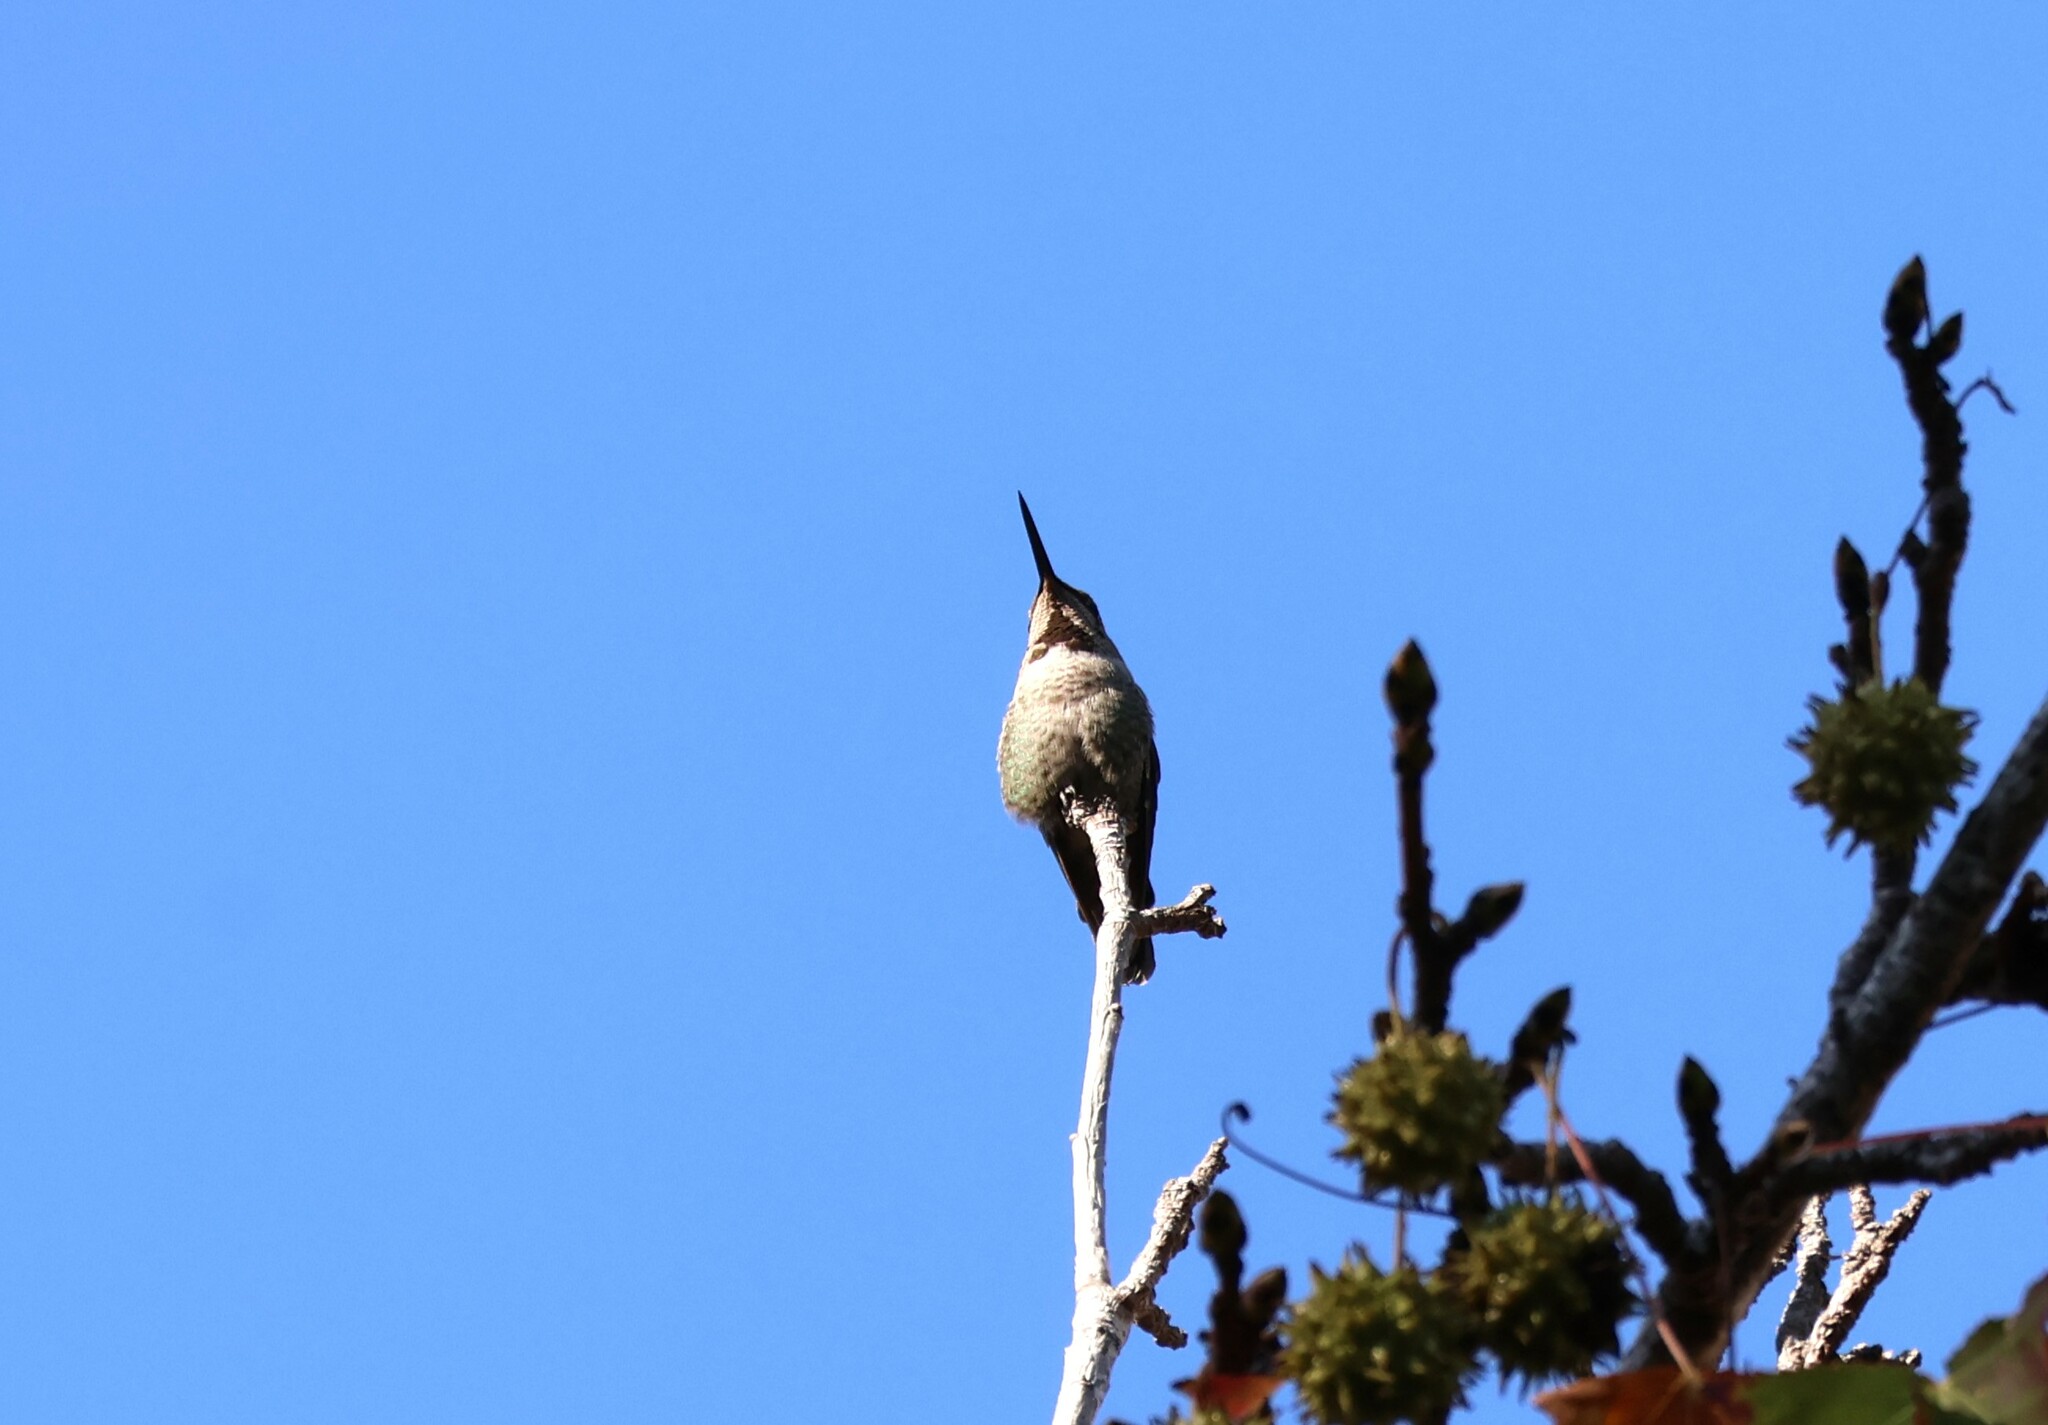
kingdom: Animalia
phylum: Chordata
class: Aves
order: Apodiformes
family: Trochilidae
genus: Calypte
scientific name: Calypte anna
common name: Anna's hummingbird
